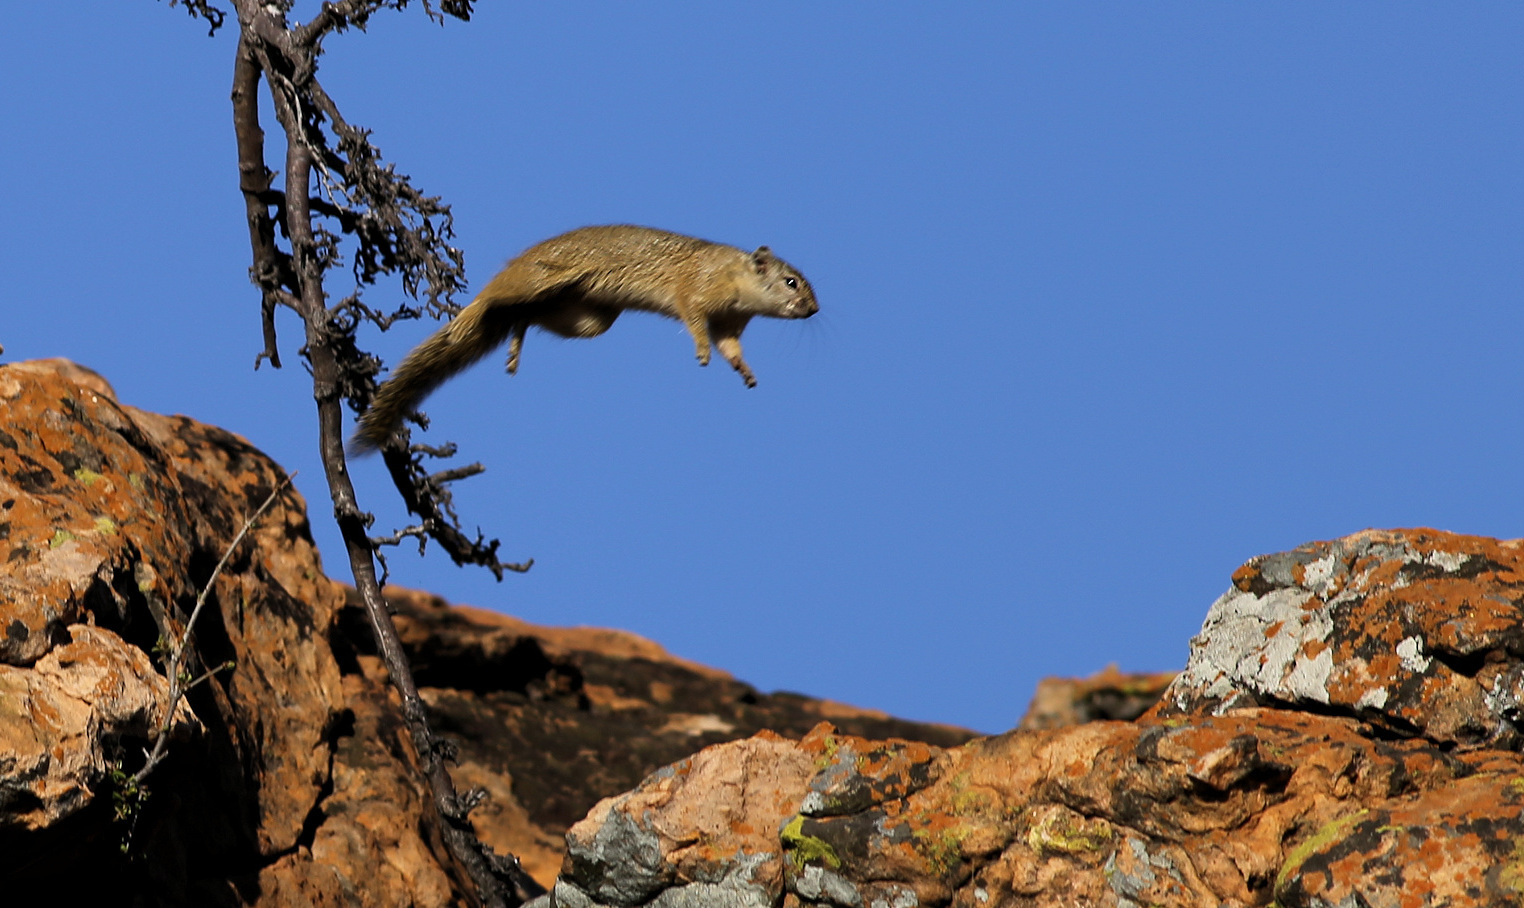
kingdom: Animalia
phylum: Chordata
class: Mammalia
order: Rodentia
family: Sciuridae
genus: Paraxerus
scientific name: Paraxerus cepapi
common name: Smith's bush squirrel
